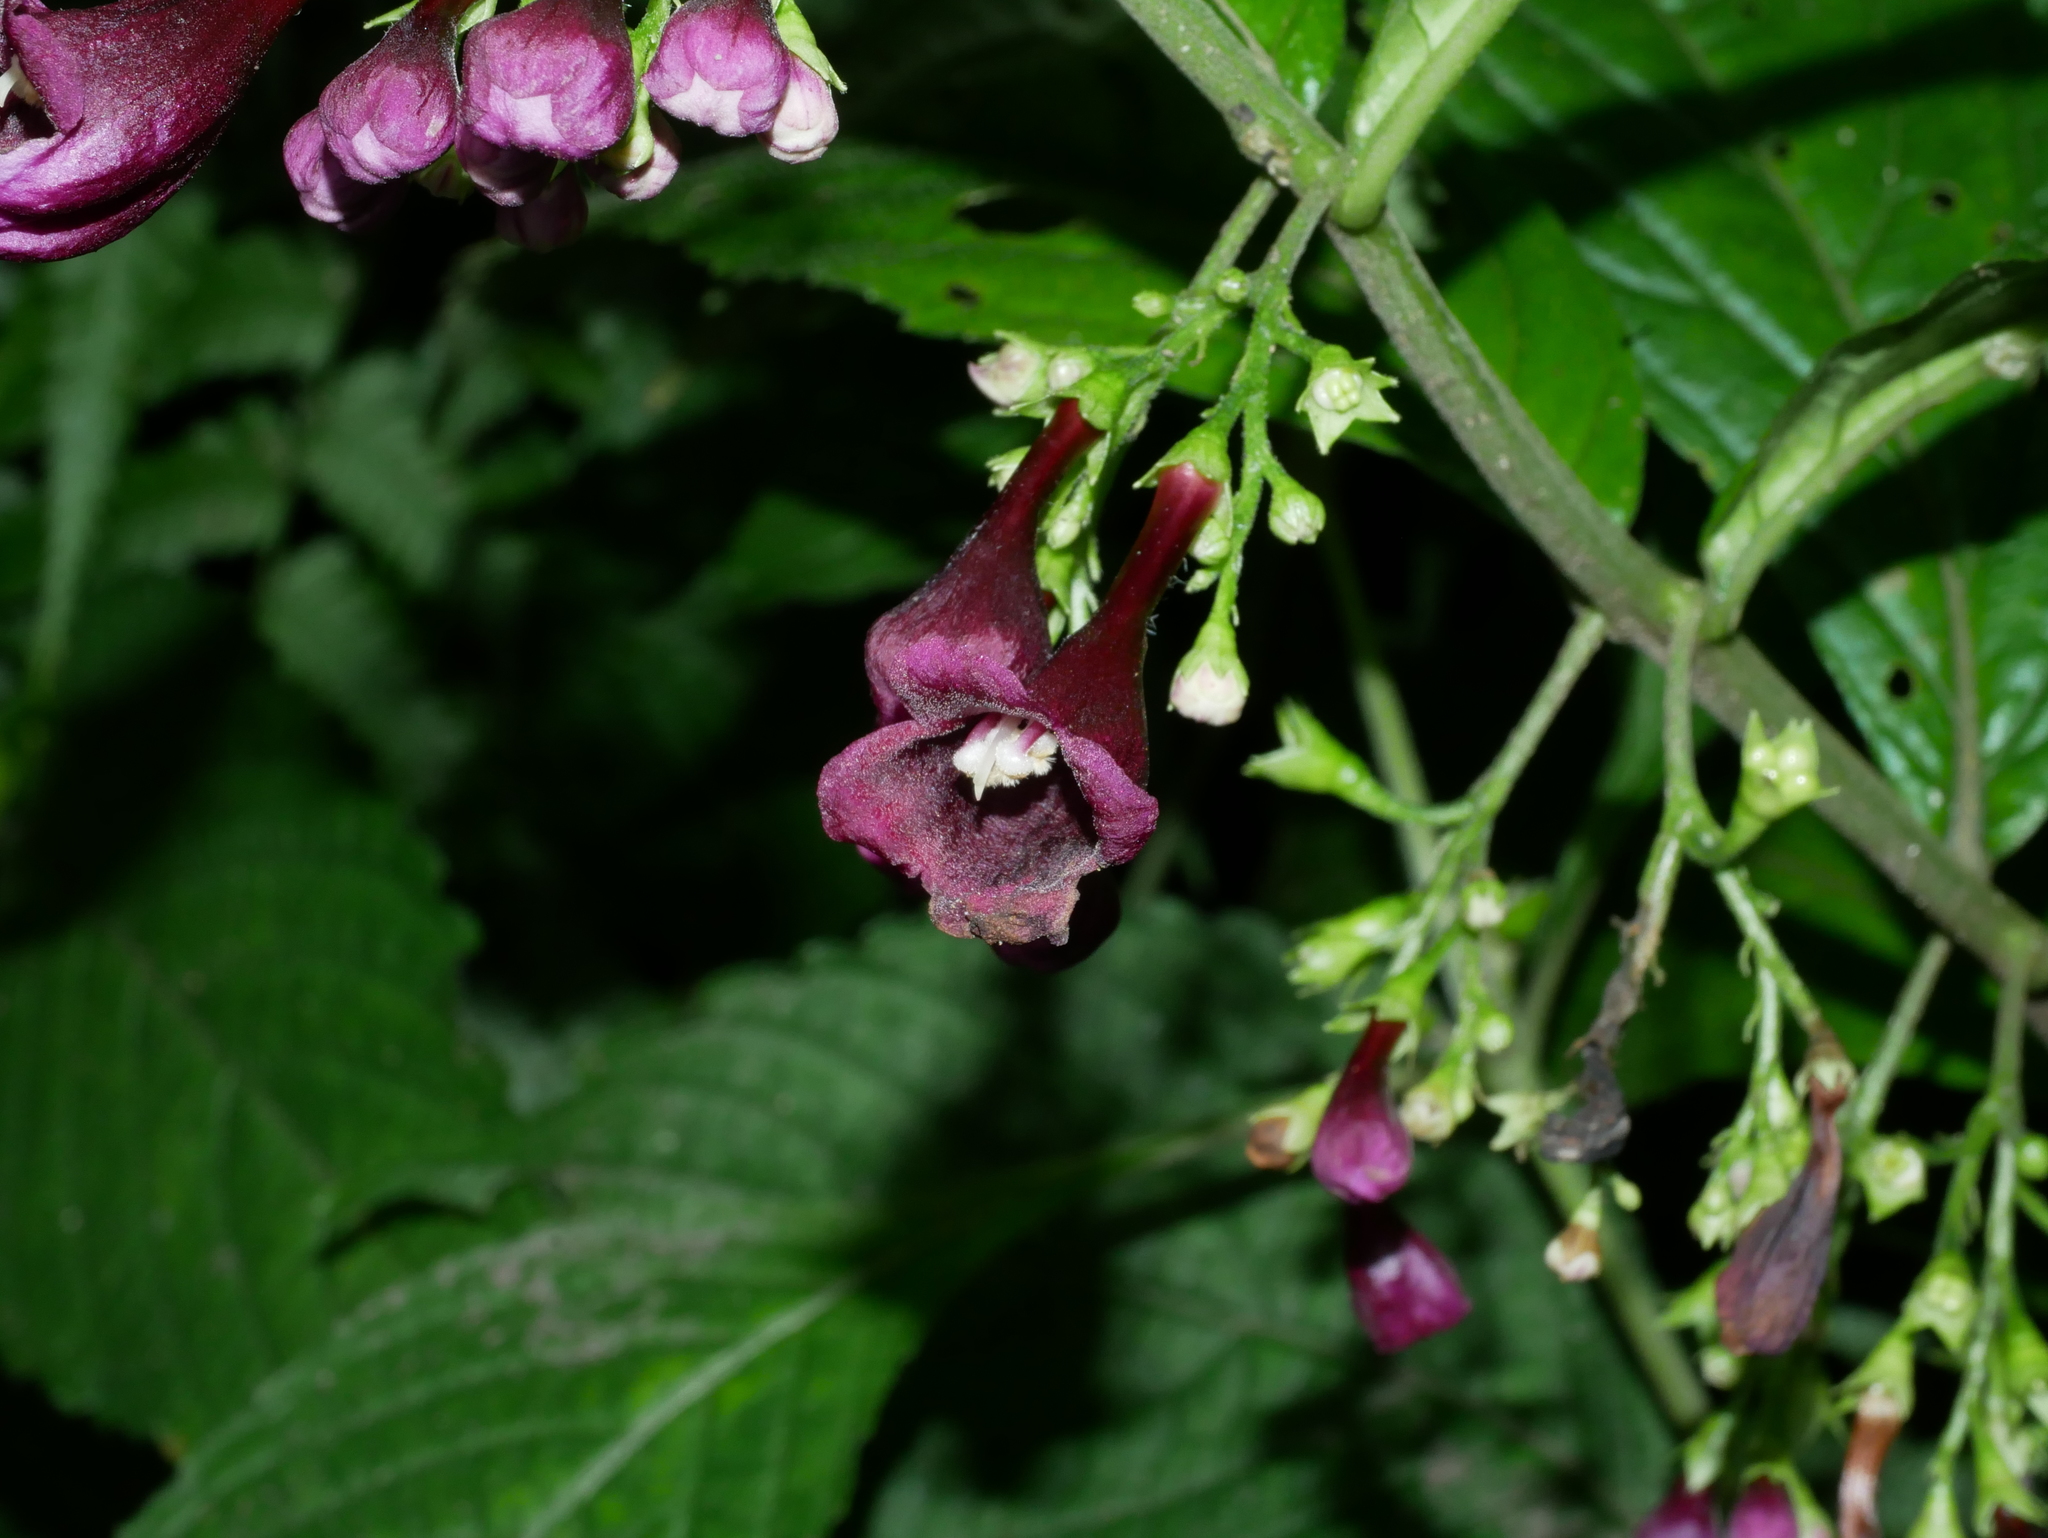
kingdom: Plantae
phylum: Tracheophyta
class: Magnoliopsida
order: Lamiales
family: Lamiaceae
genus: Chelonopsis
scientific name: Chelonopsis deflexa
